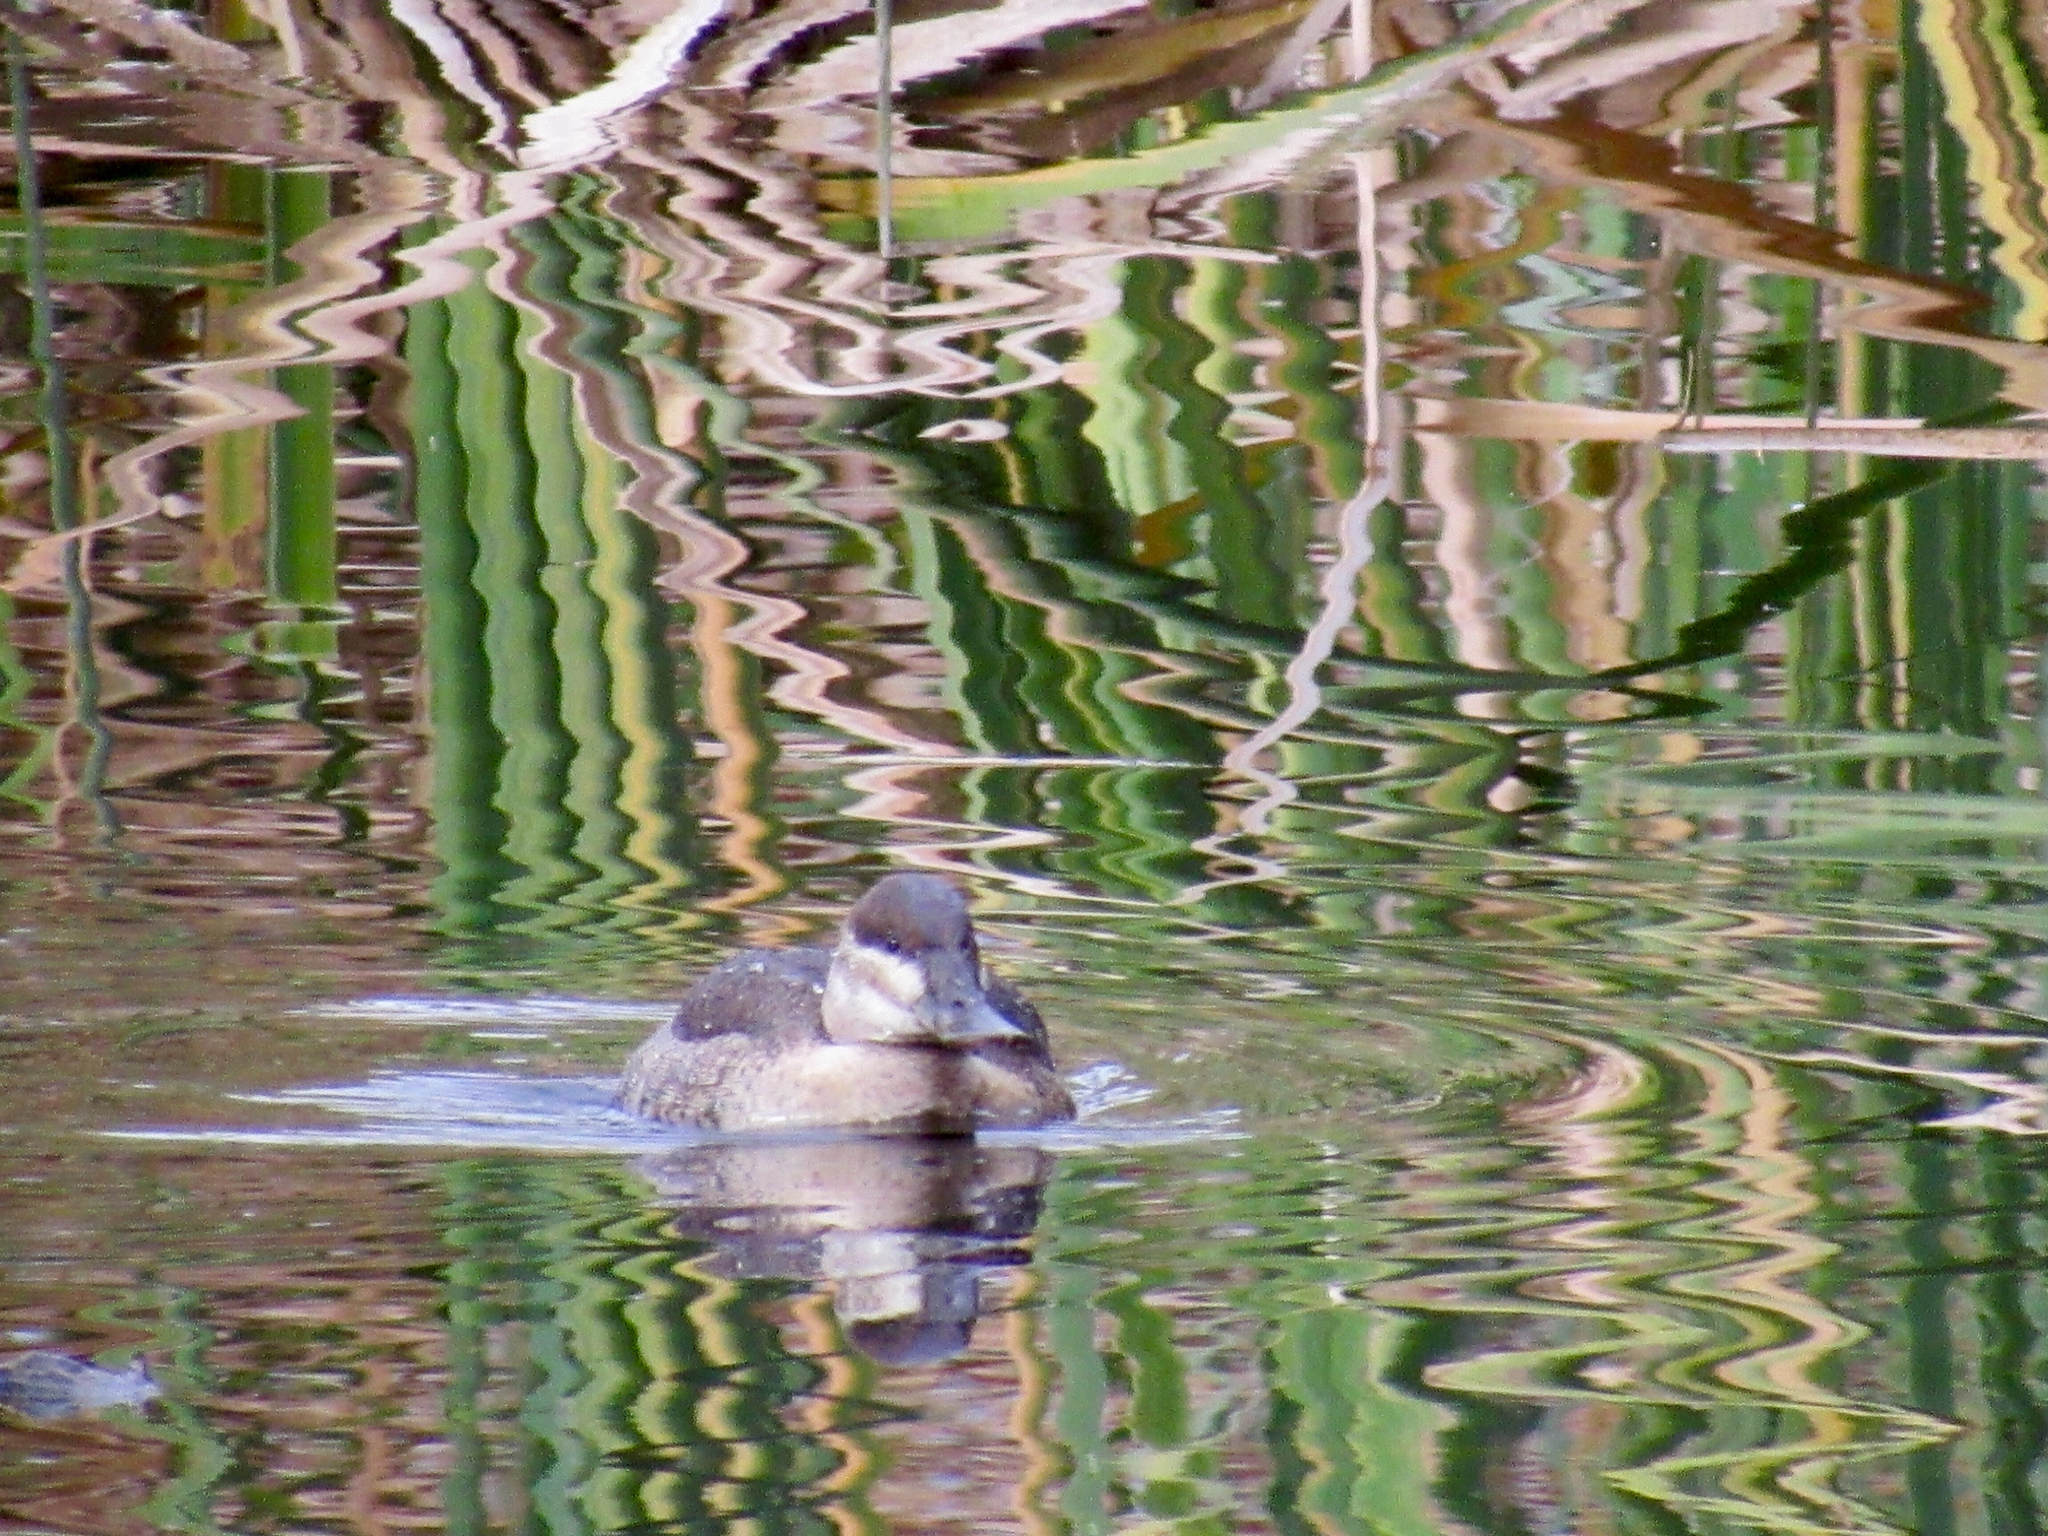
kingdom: Animalia
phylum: Chordata
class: Aves
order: Anseriformes
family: Anatidae
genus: Oxyura
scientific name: Oxyura jamaicensis
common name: Ruddy duck
